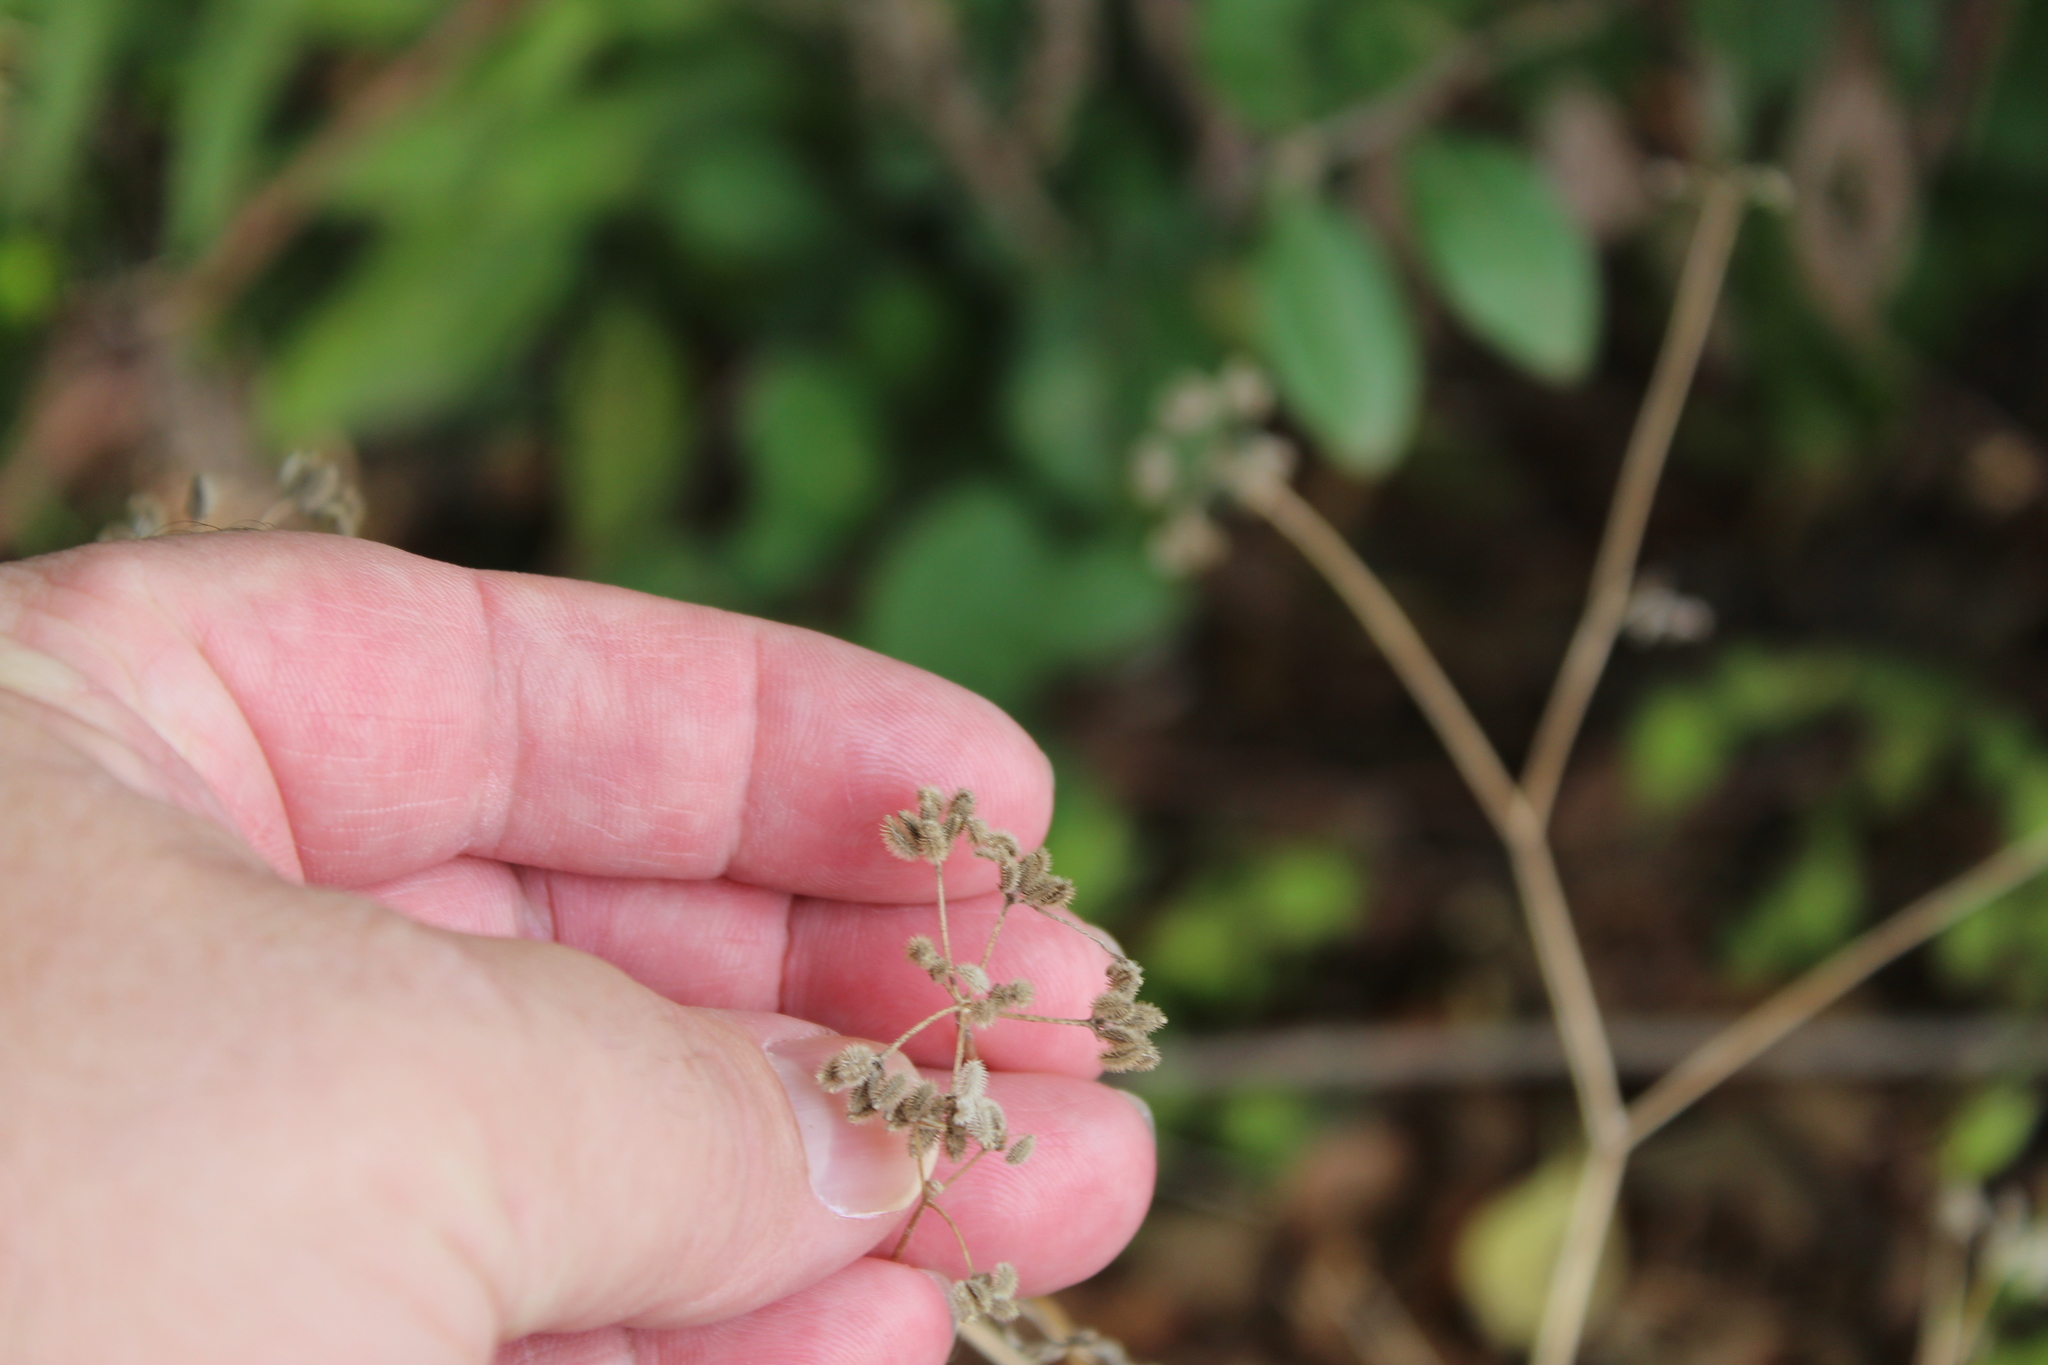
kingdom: Plantae
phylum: Tracheophyta
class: Magnoliopsida
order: Apiales
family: Apiaceae
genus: Torilis
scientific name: Torilis arvensis
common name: Spreading hedge-parsley
